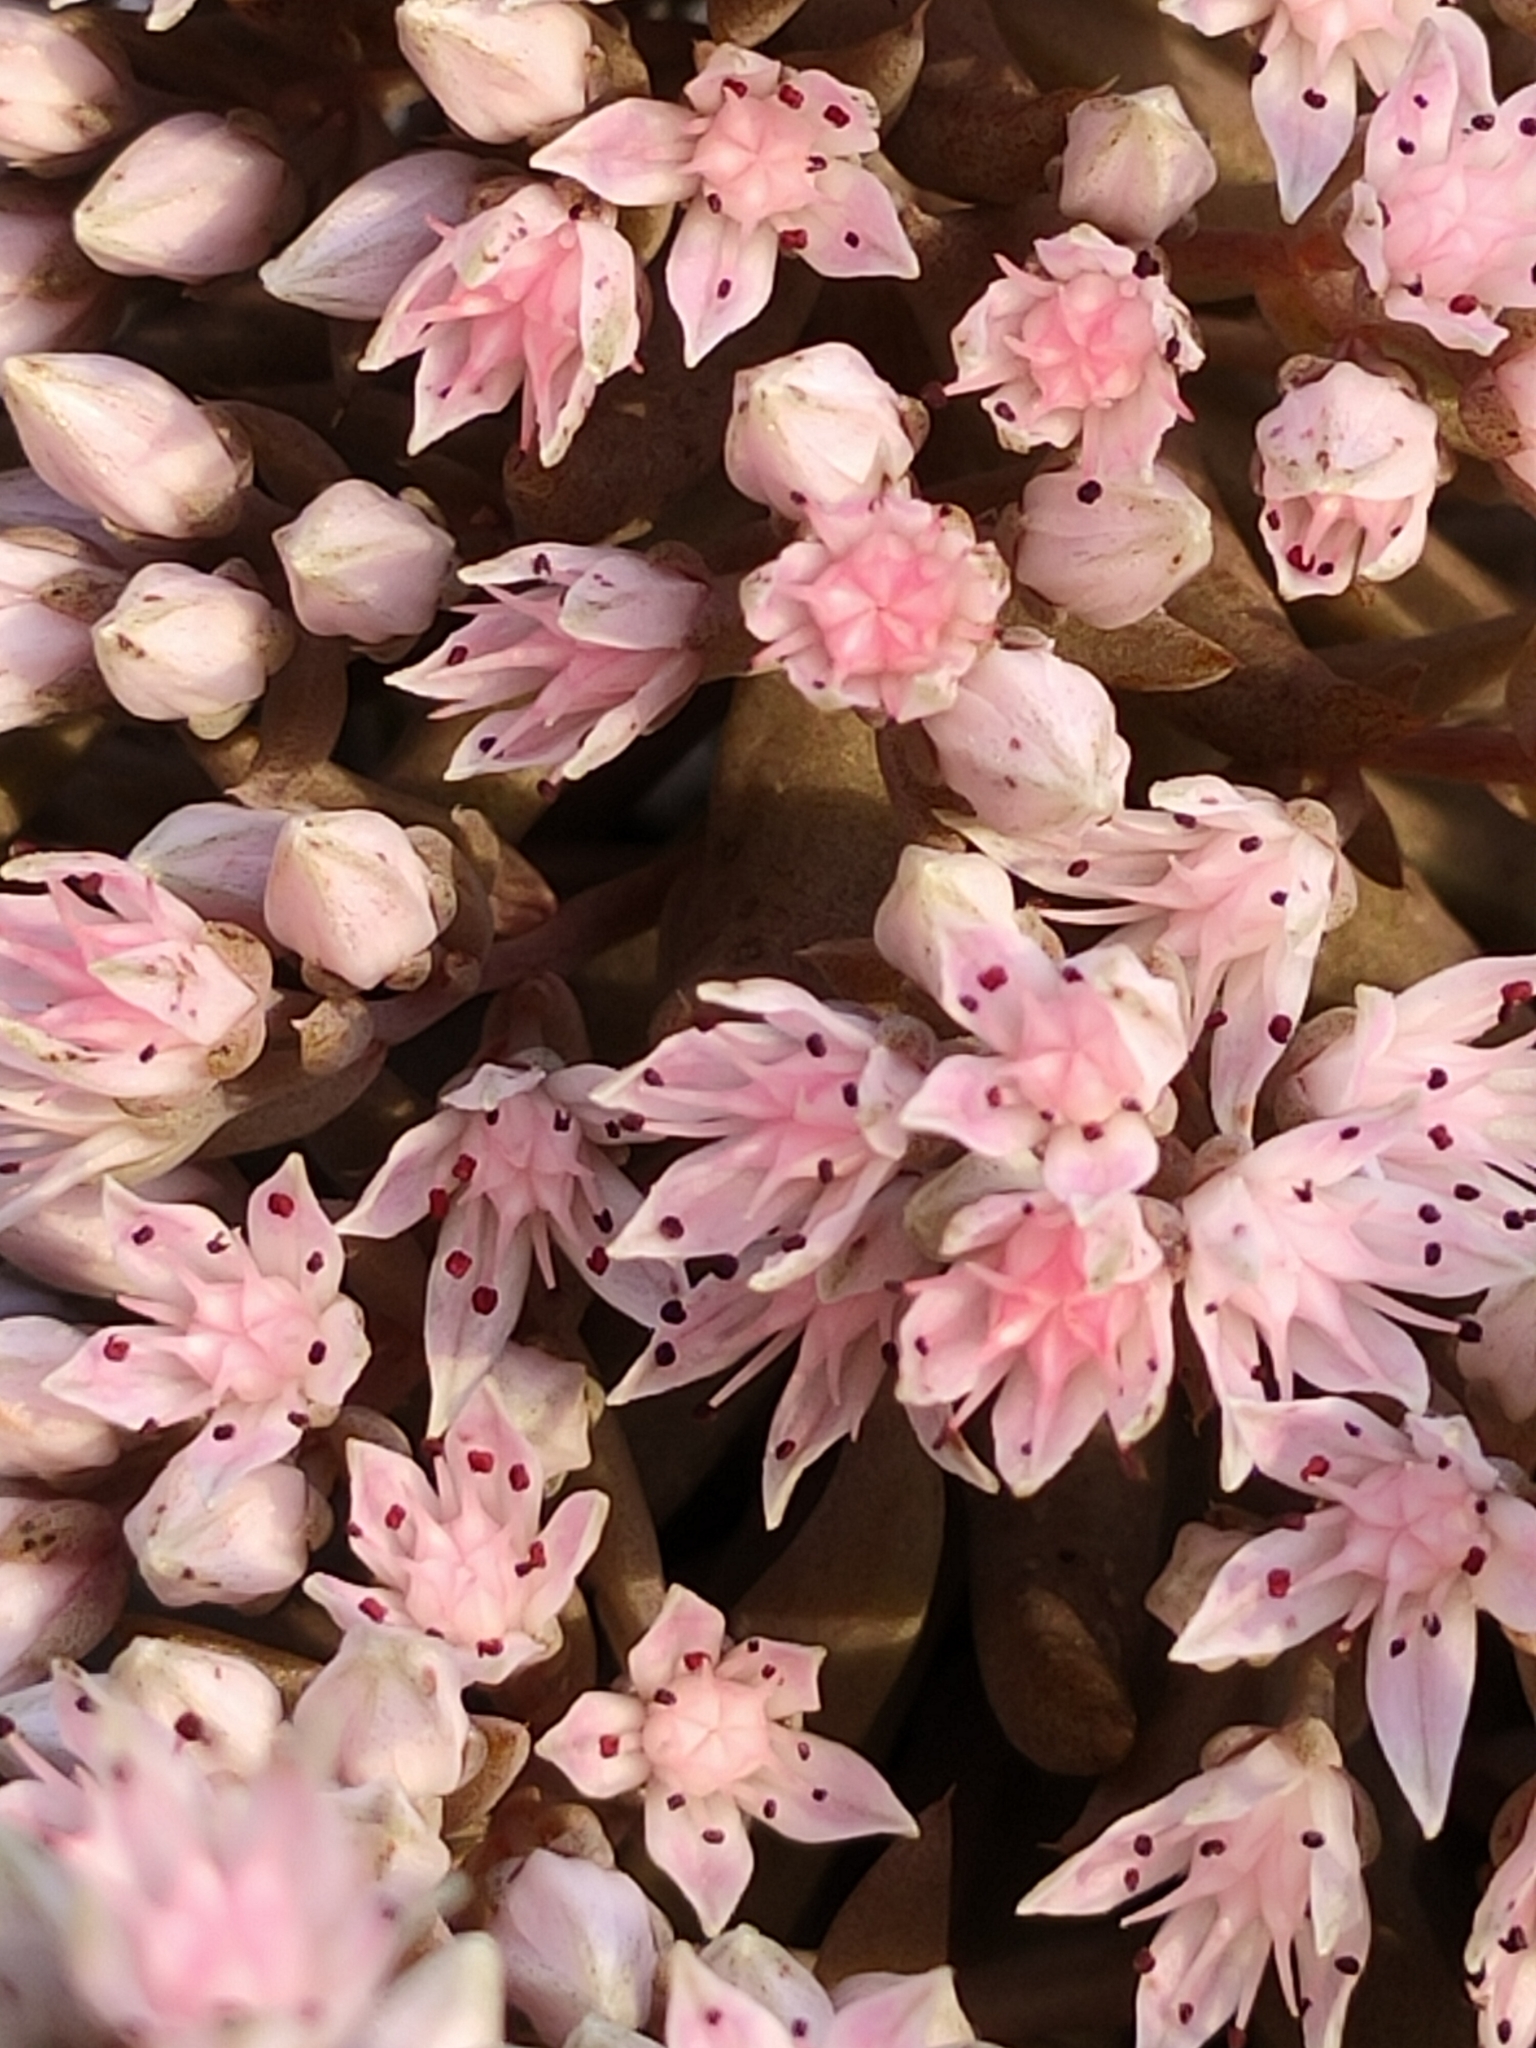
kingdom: Plantae
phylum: Tracheophyta
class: Magnoliopsida
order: Saxifragales
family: Crassulaceae
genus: Orostachys
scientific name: Orostachys fimbriata
